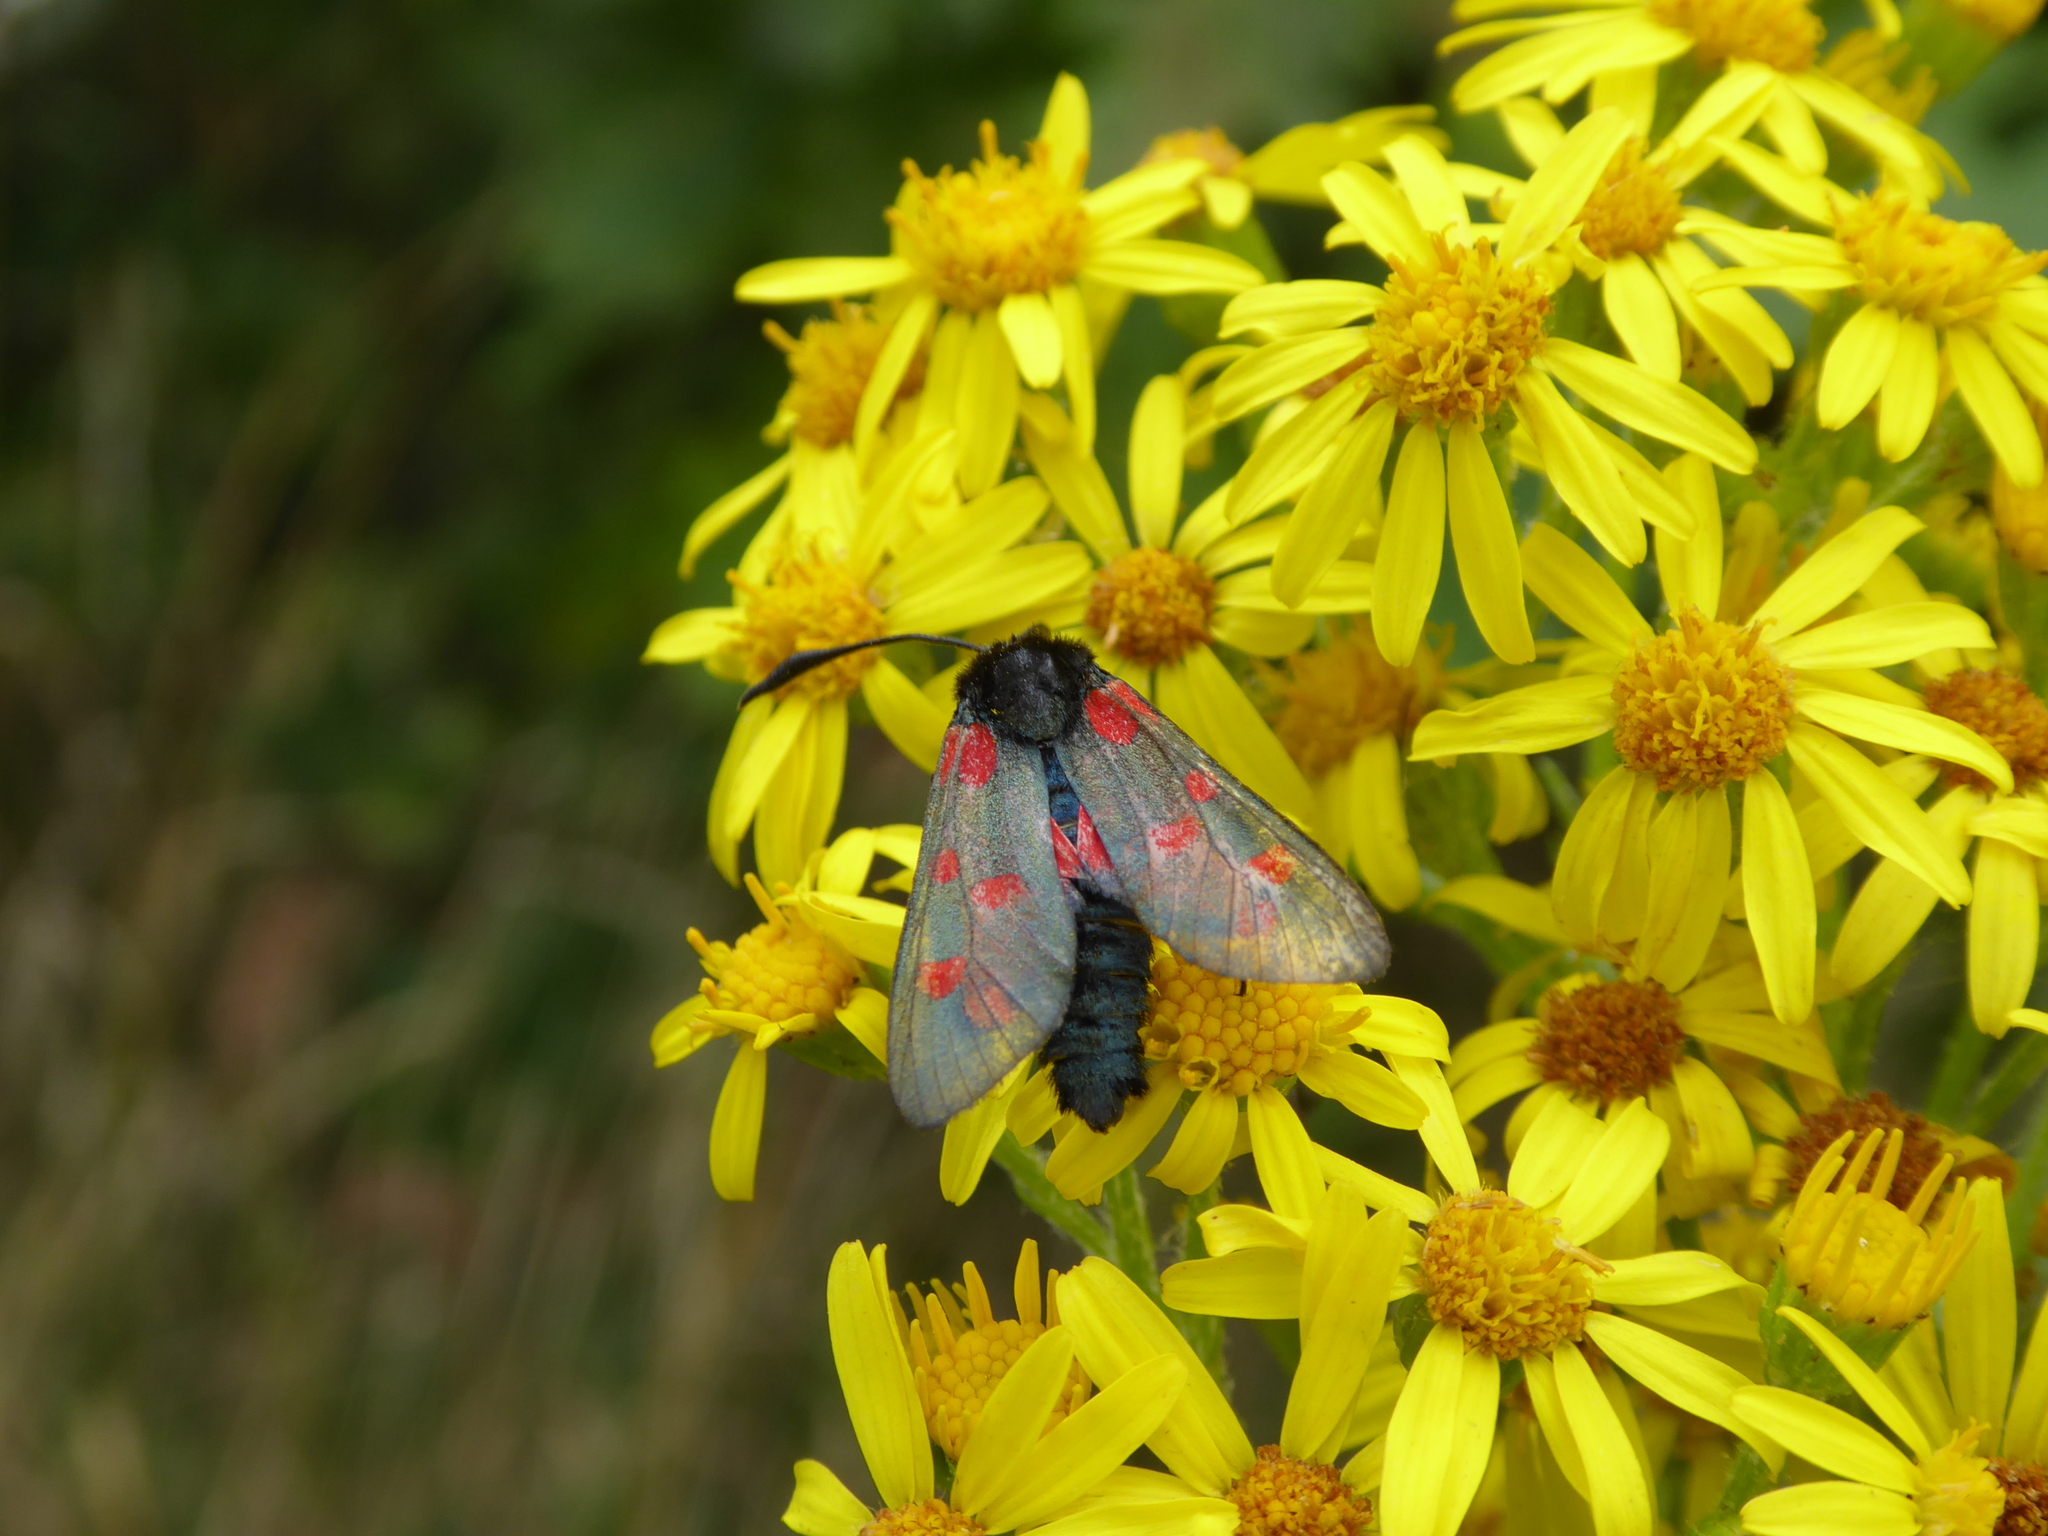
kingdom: Animalia
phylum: Arthropoda
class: Insecta
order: Lepidoptera
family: Zygaenidae
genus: Zygaena
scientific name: Zygaena filipendulae
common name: Six-spot burnet
